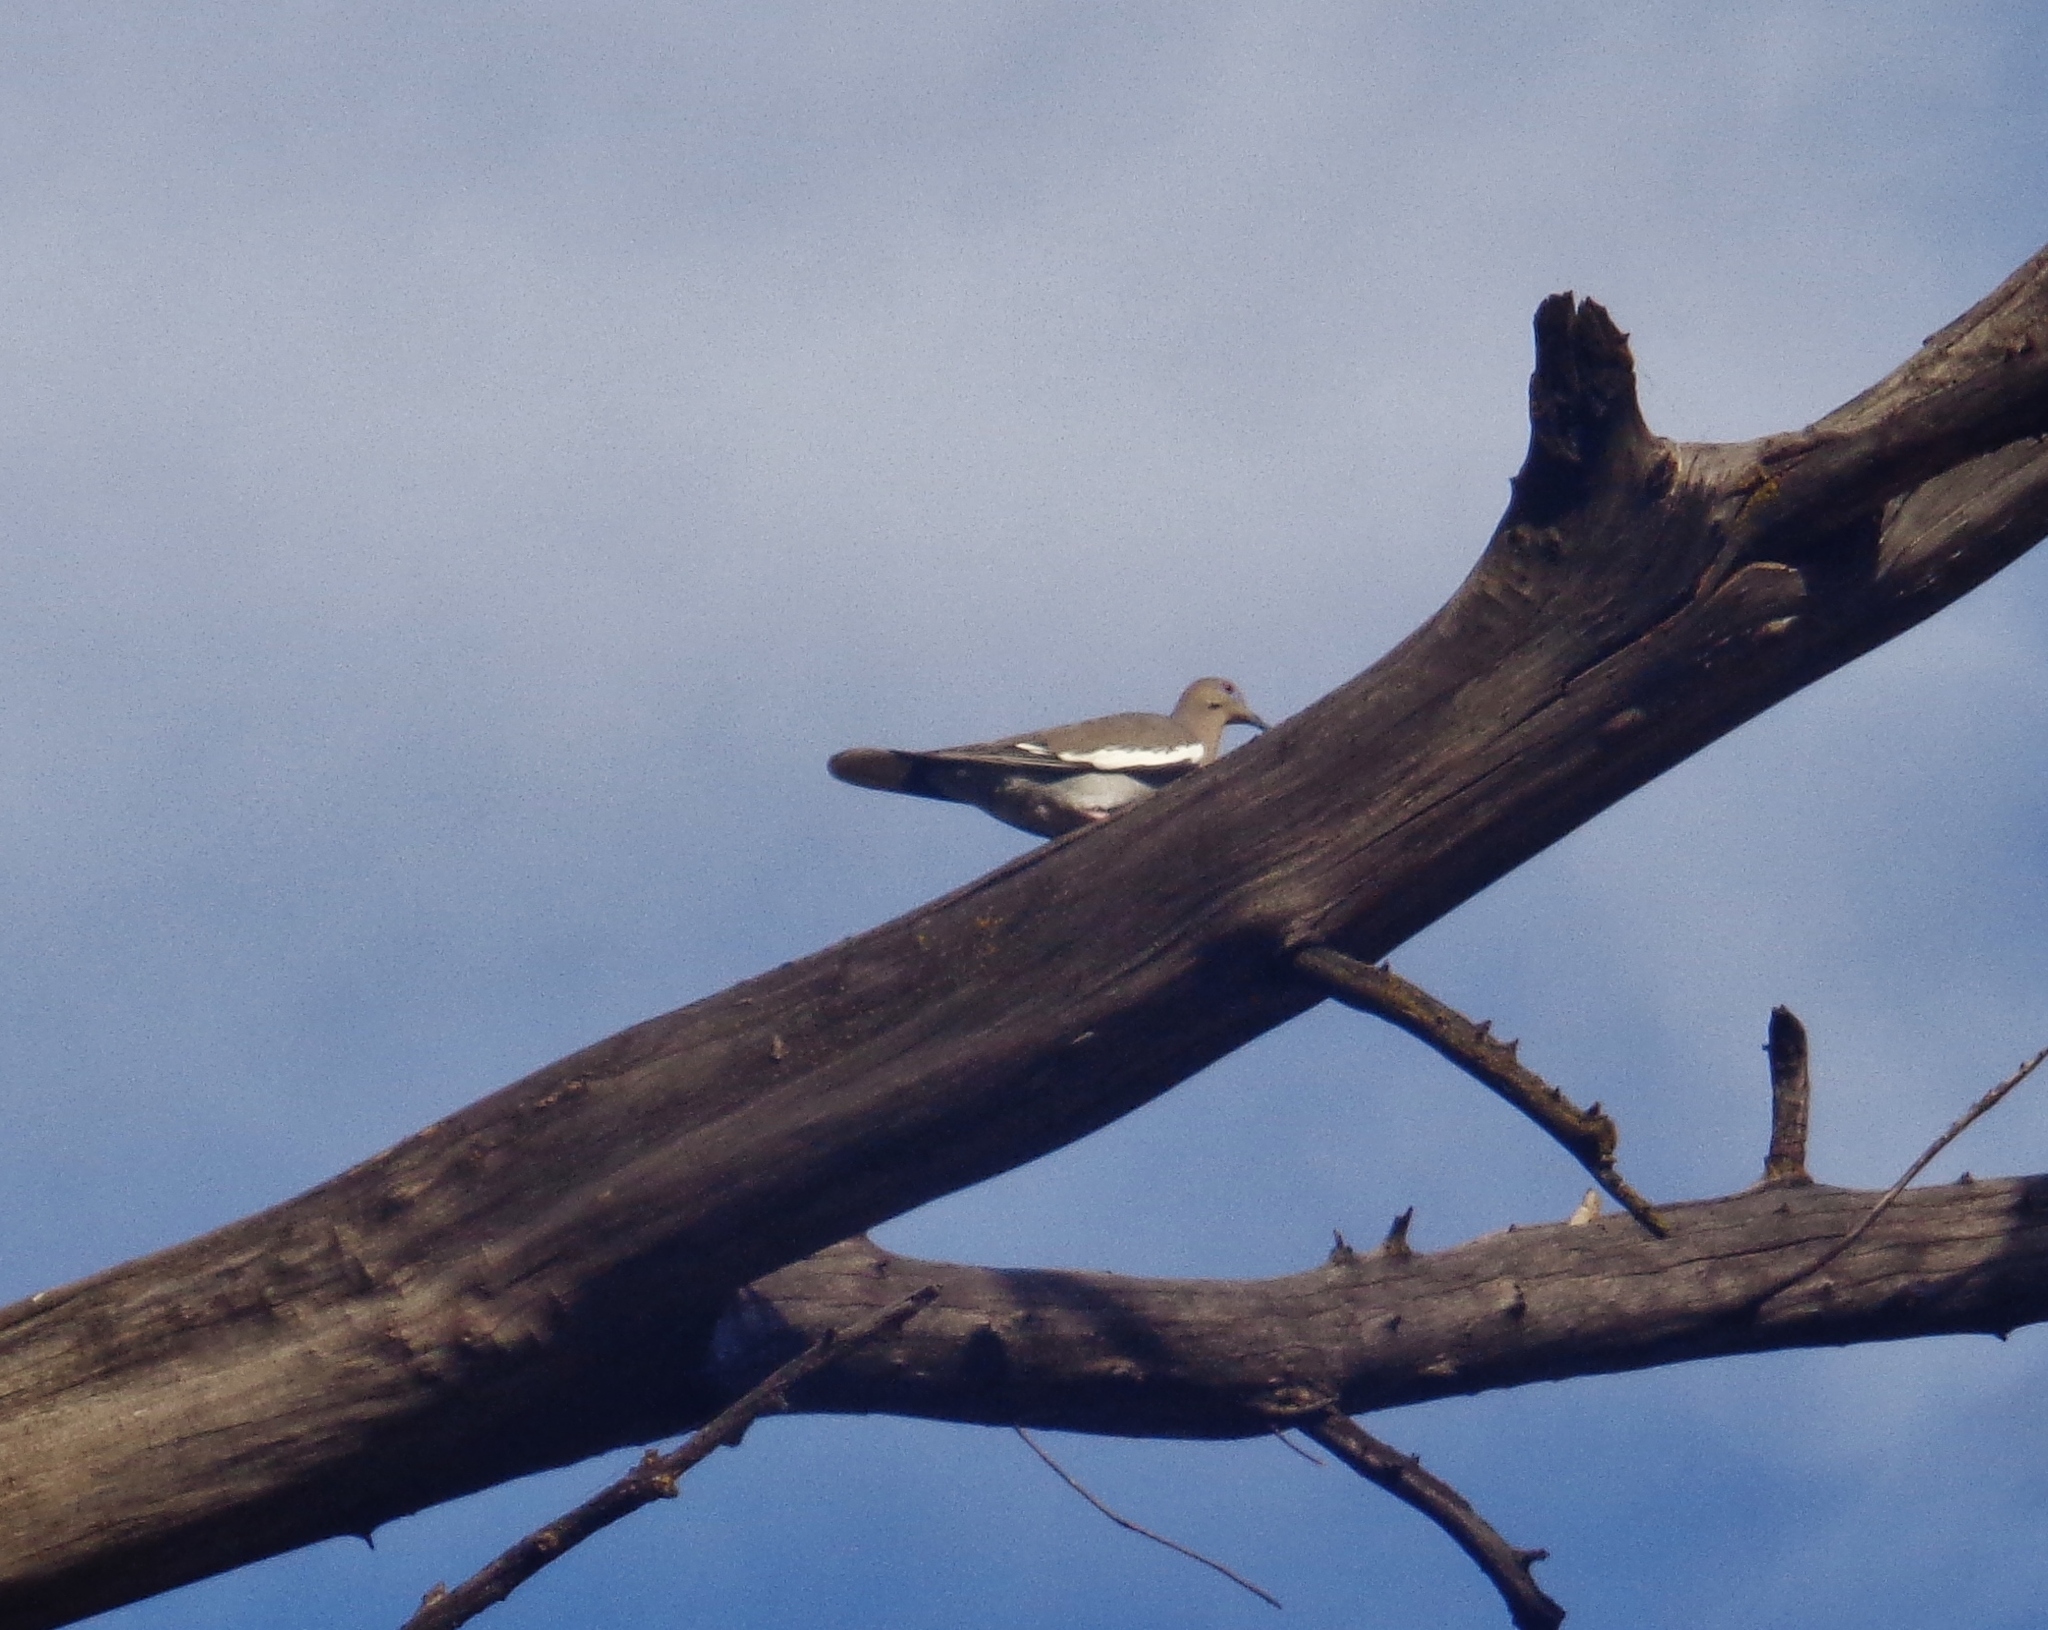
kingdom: Animalia
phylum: Chordata
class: Aves
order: Columbiformes
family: Columbidae
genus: Zenaida
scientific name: Zenaida asiatica
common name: White-winged dove
